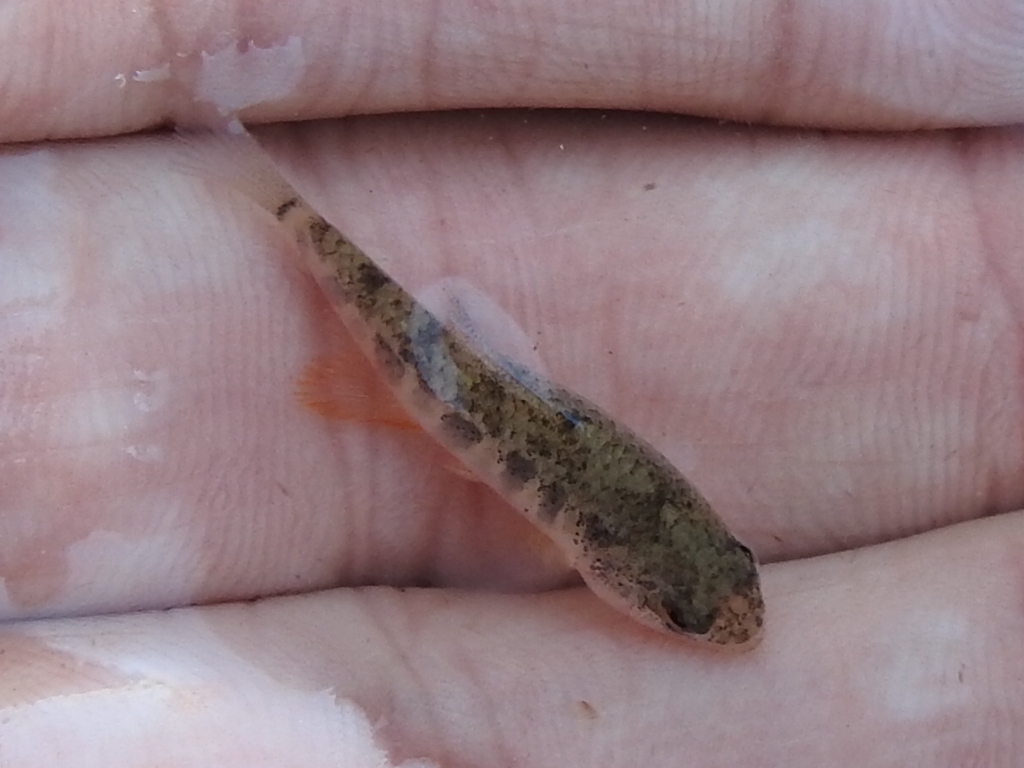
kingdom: Animalia
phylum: Chordata
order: Cyprinodontiformes
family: Cyprinodontidae
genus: Cyprinodon
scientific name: Cyprinodon variegatus
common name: Sheepshead minnow
